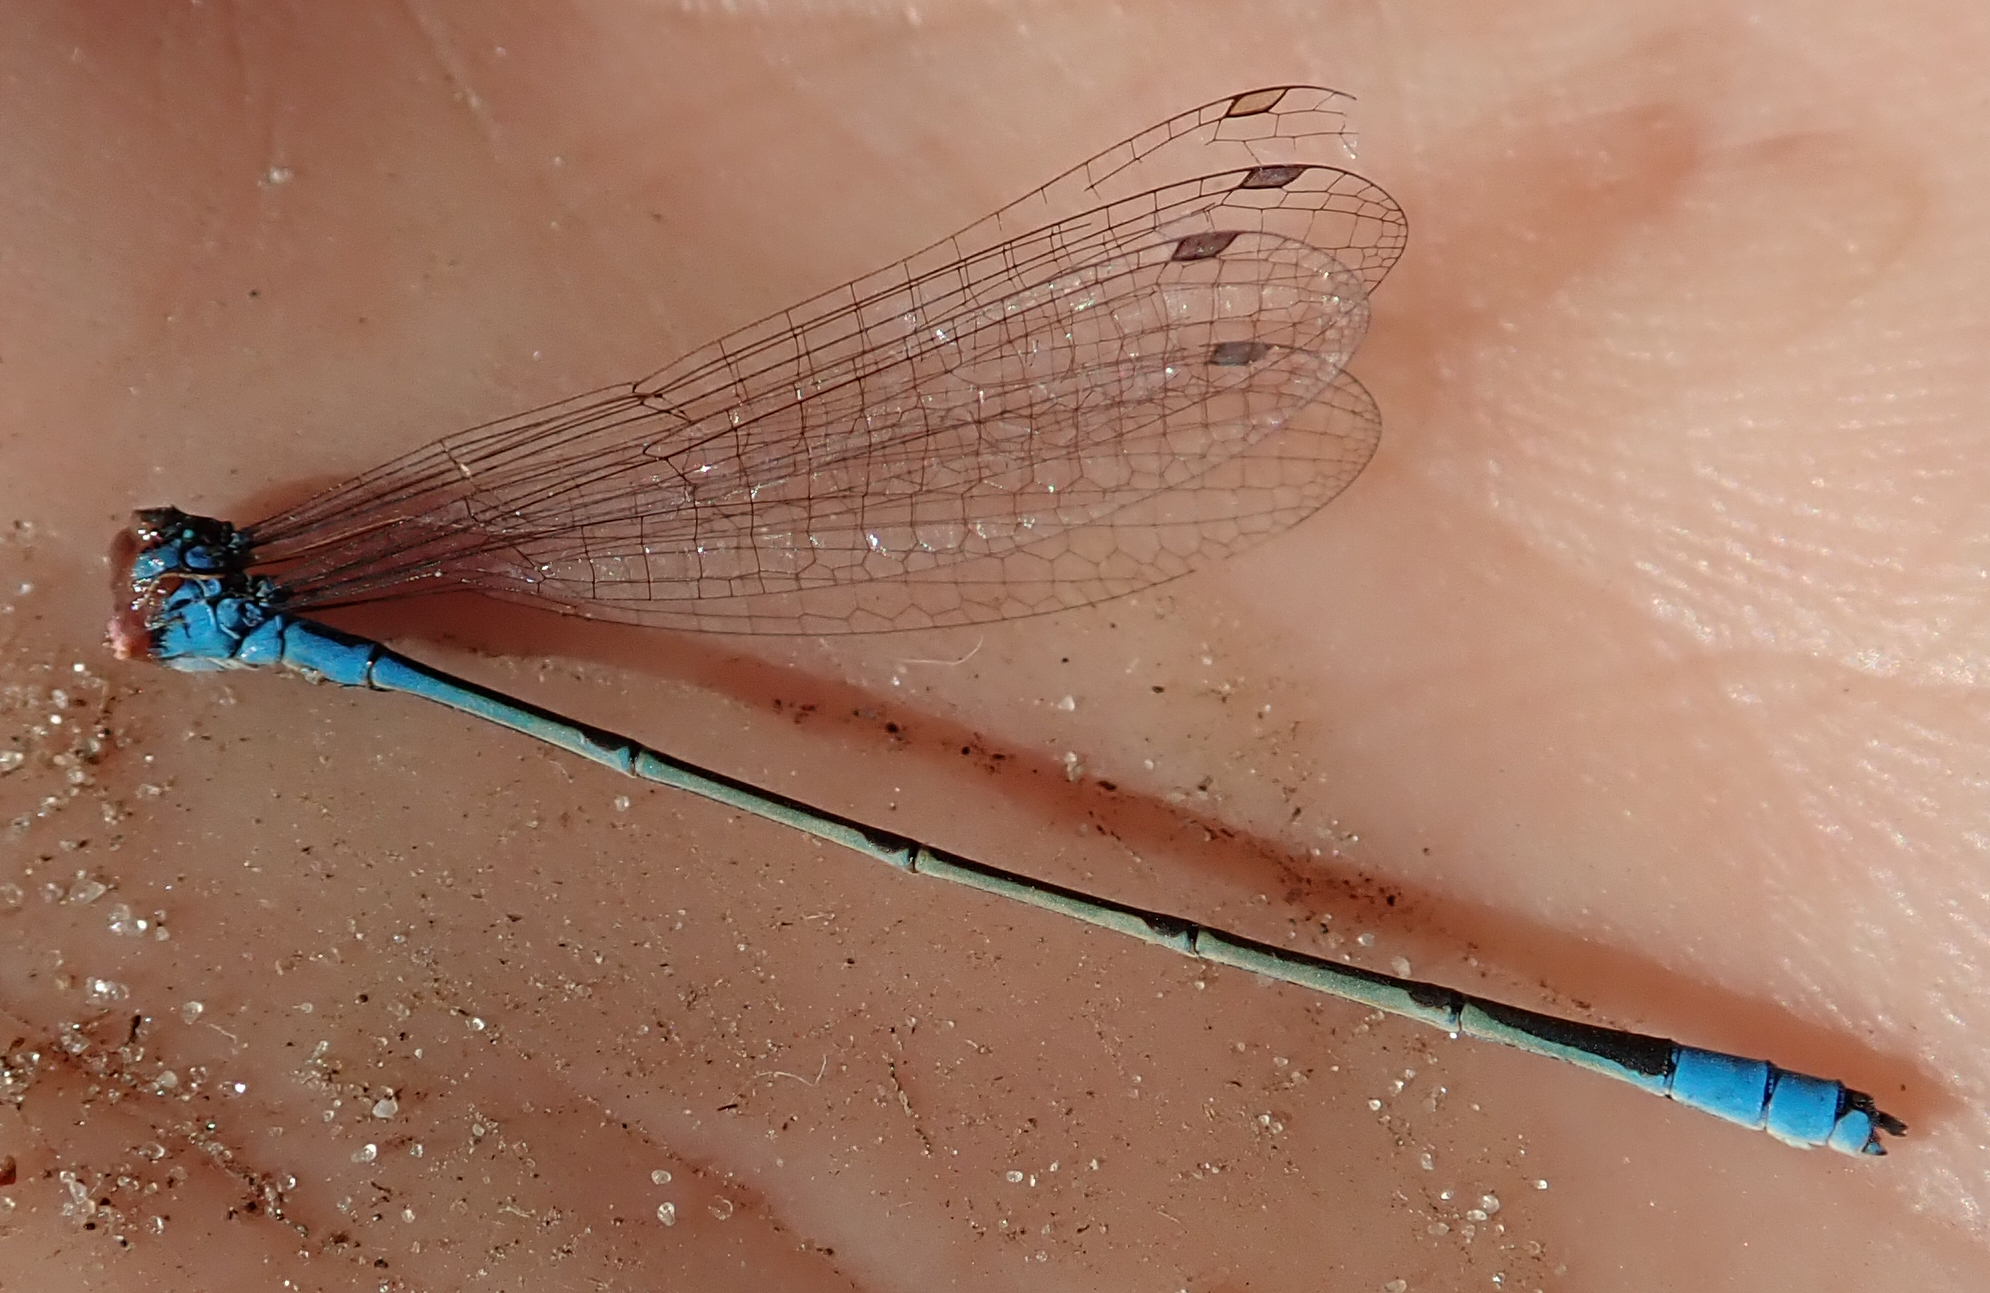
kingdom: Animalia
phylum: Arthropoda
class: Insecta
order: Odonata
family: Coenagrionidae
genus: Pseudagrion
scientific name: Pseudagrion coeleste
